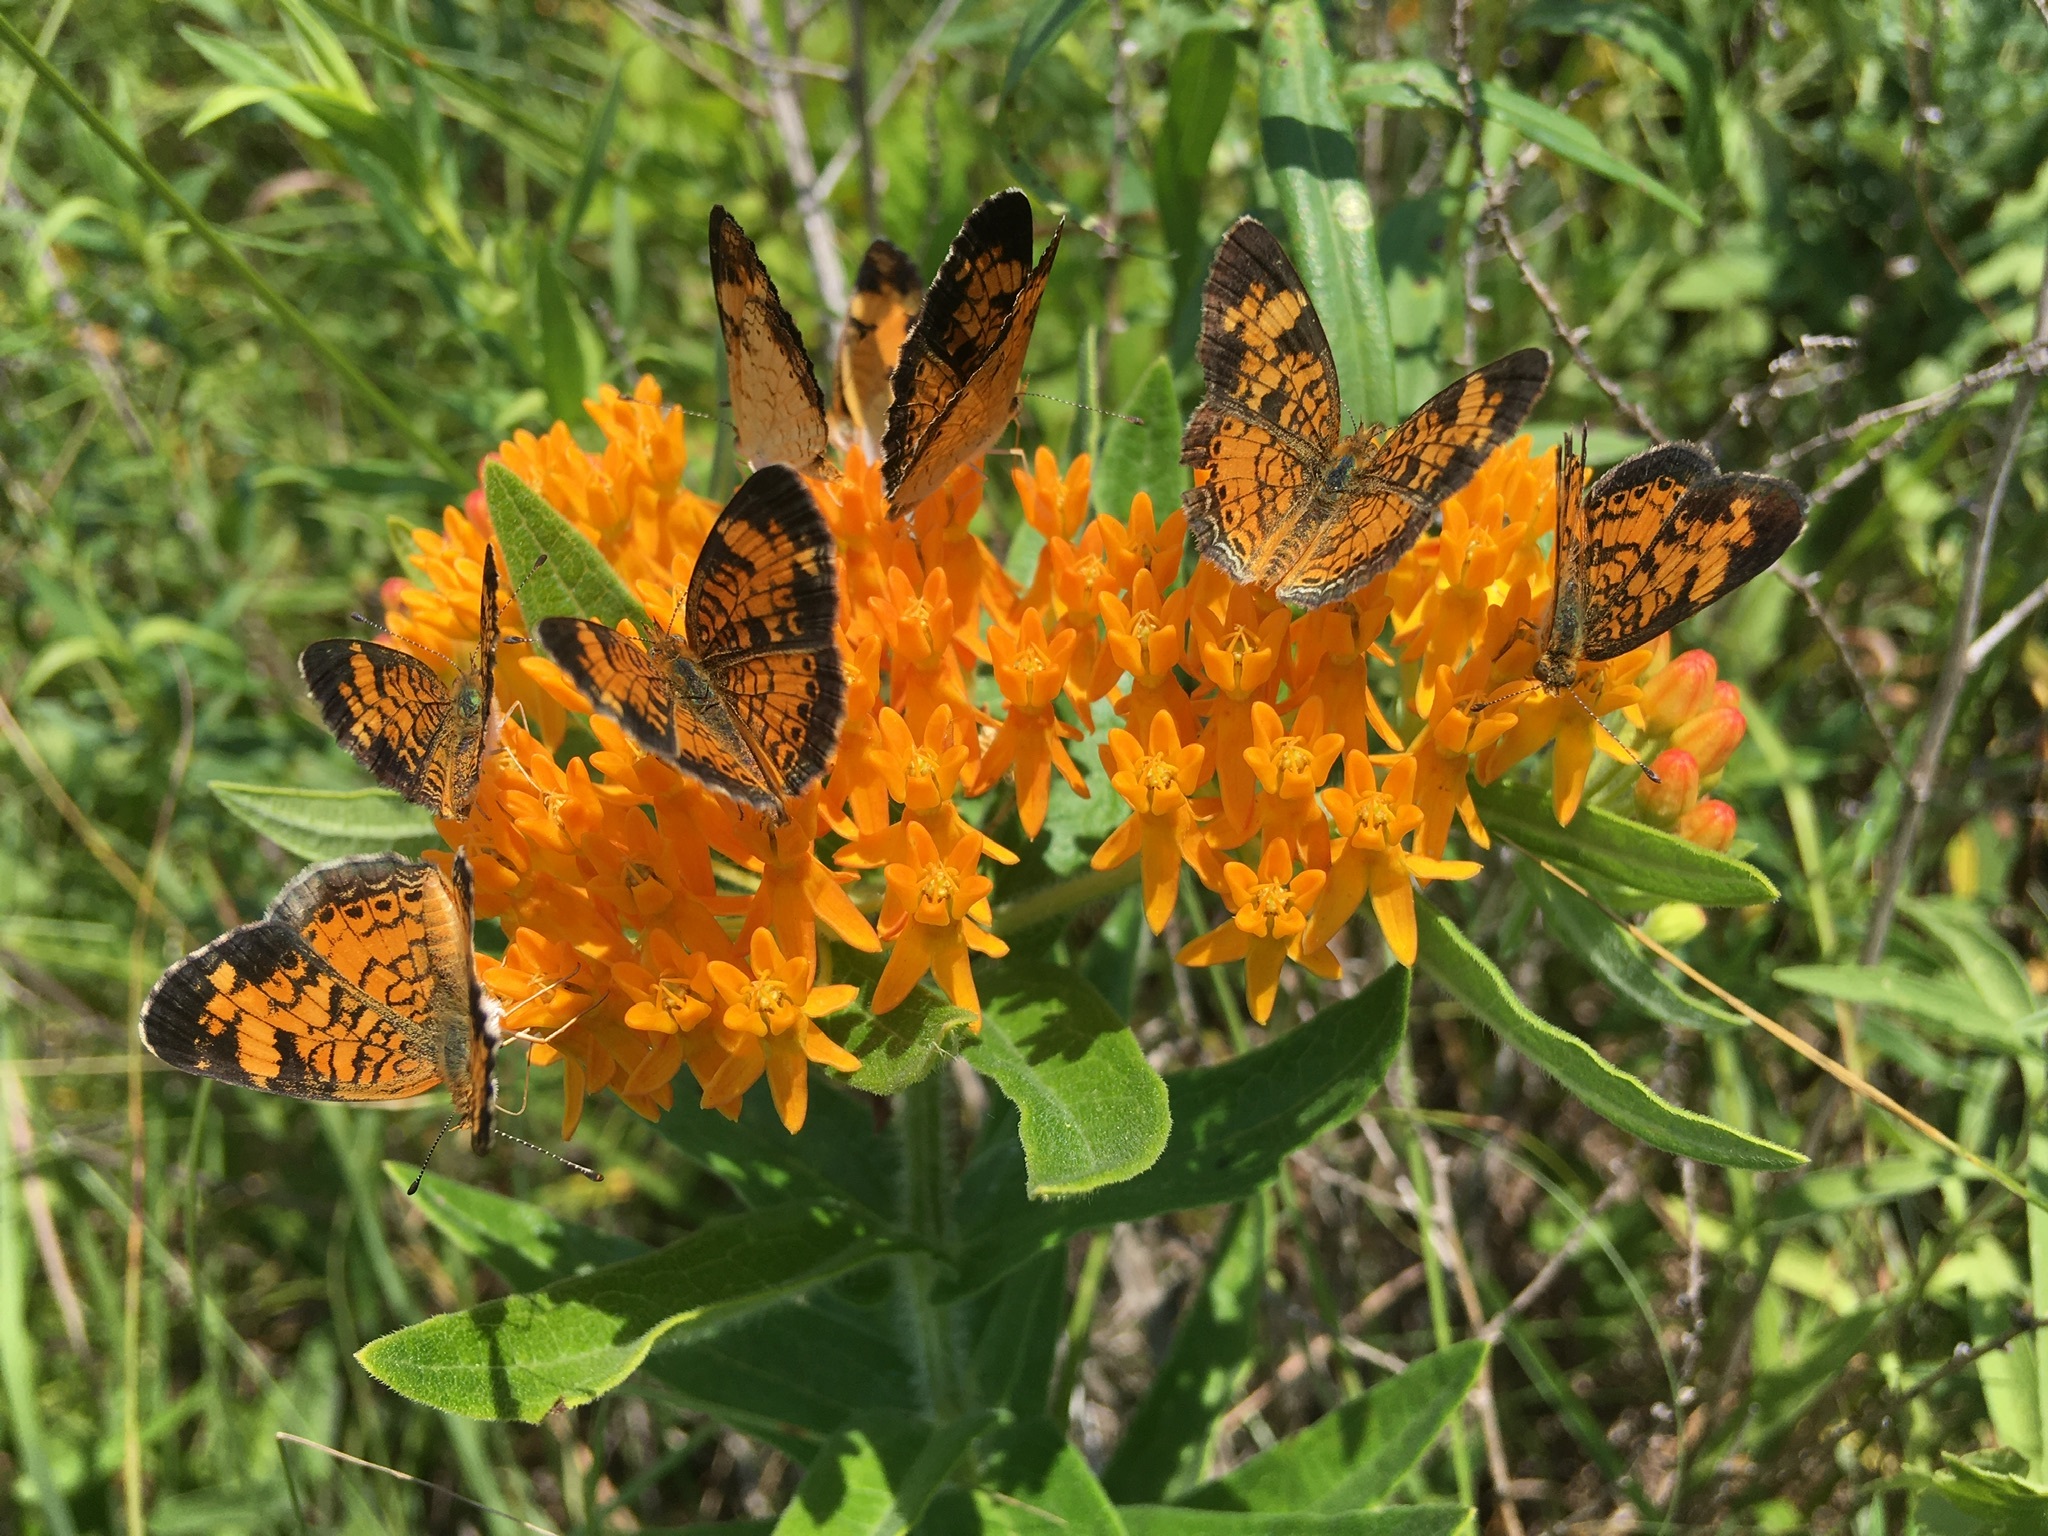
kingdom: Animalia
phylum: Arthropoda
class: Insecta
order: Lepidoptera
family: Nymphalidae
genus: Phyciodes
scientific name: Phyciodes tharos
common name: Pearl crescent
